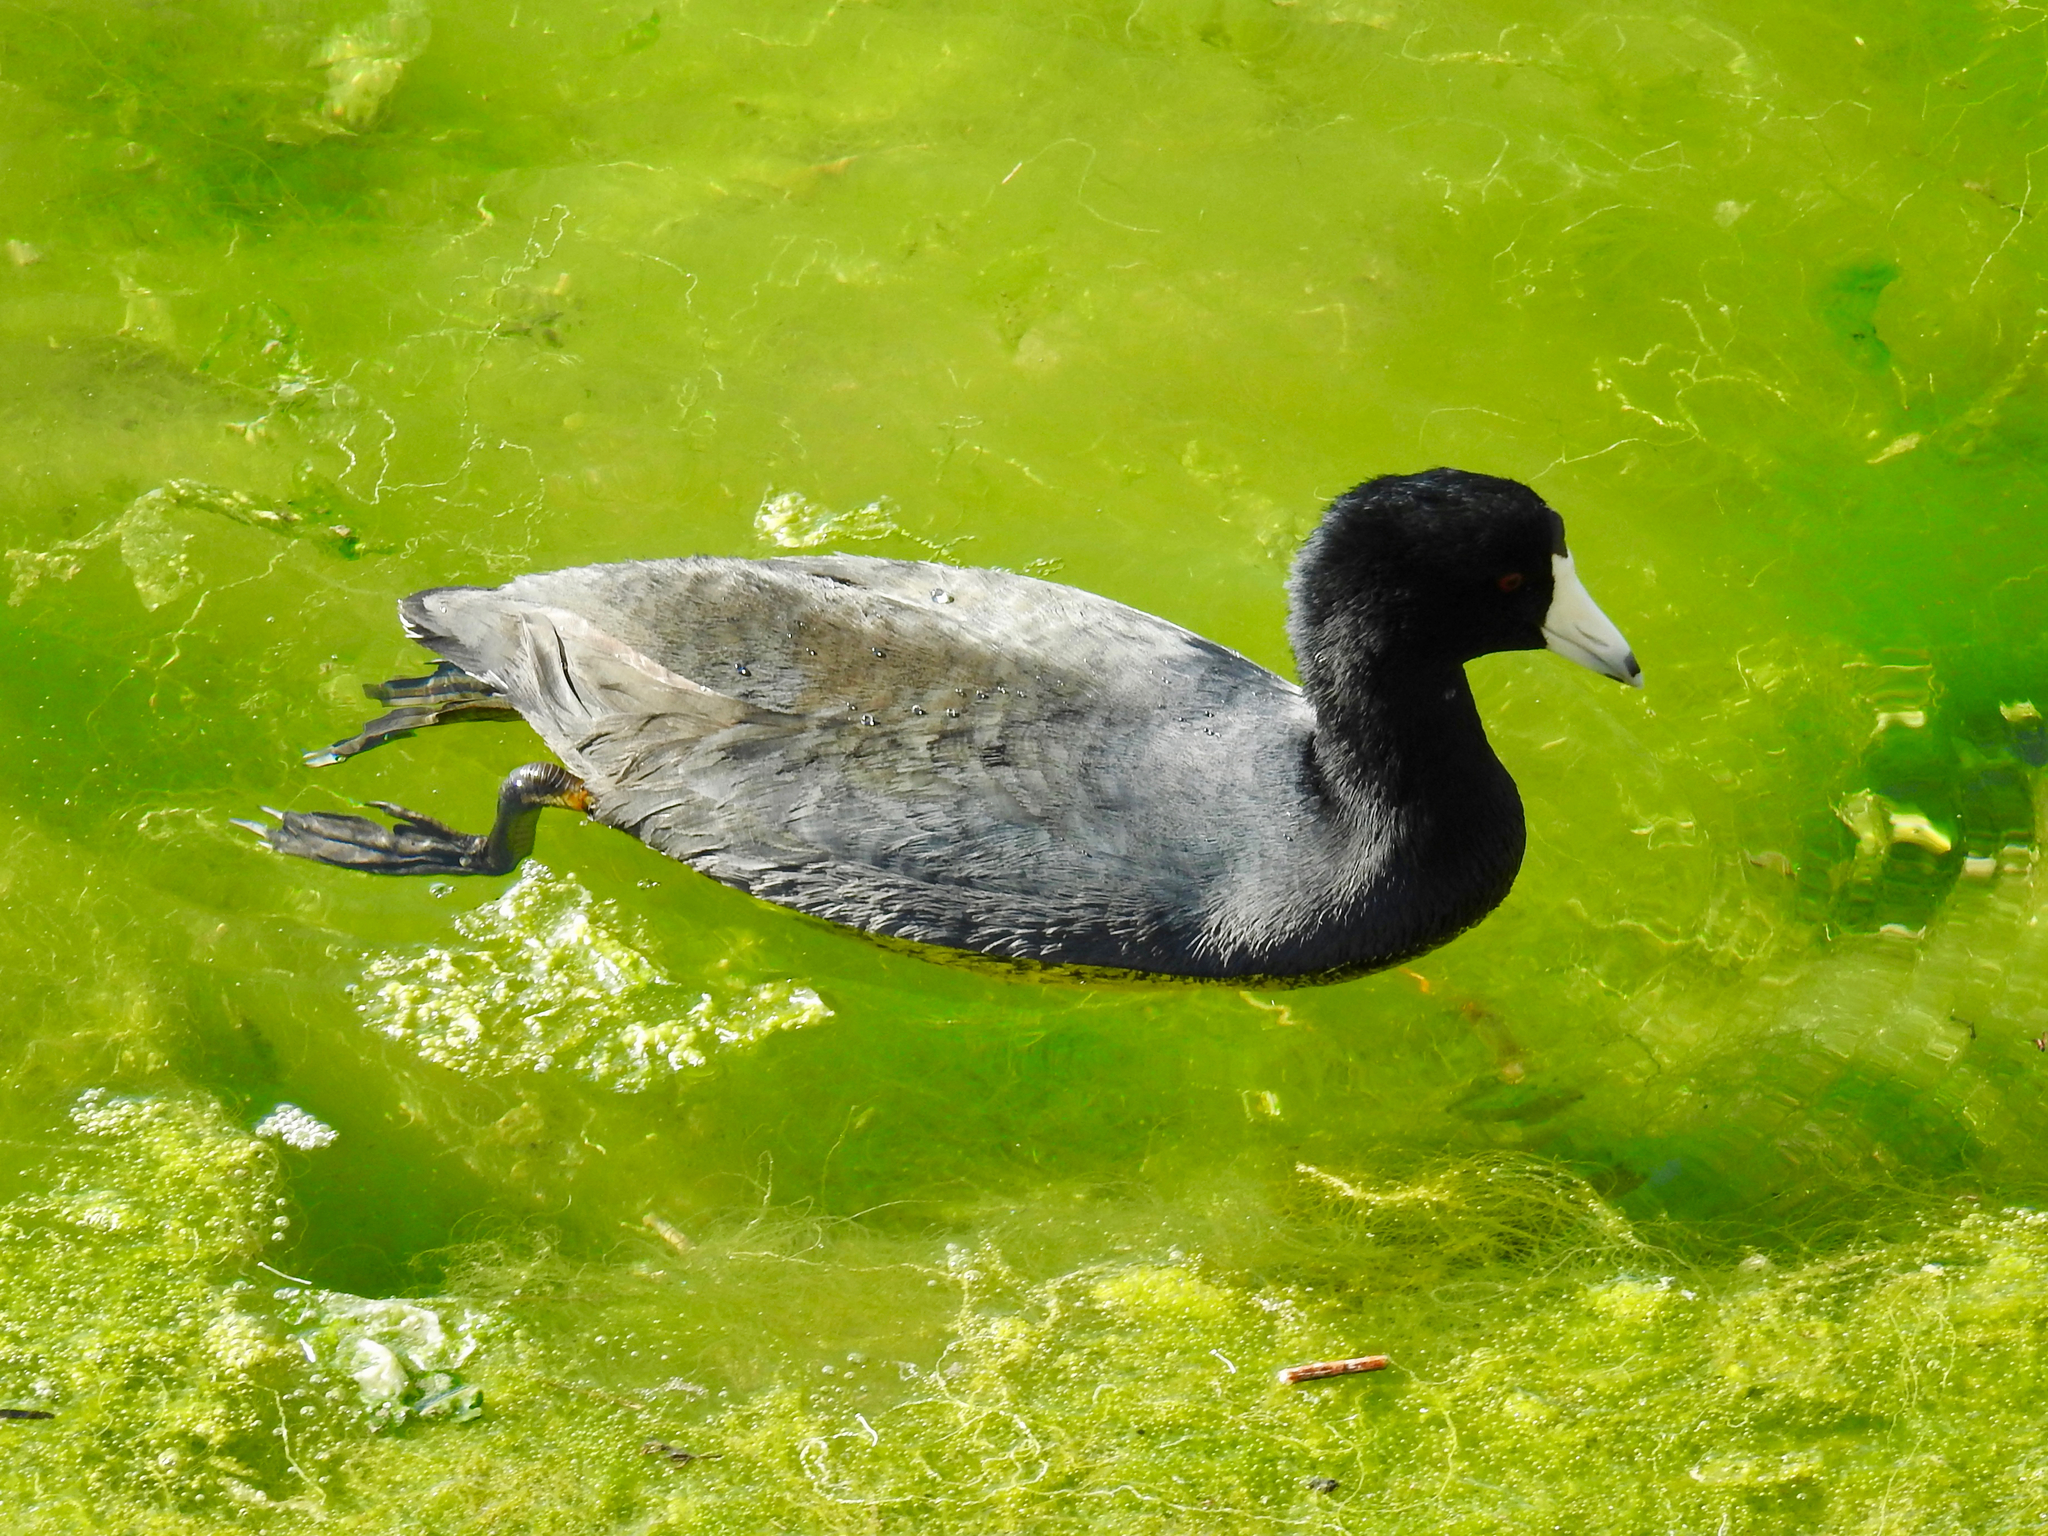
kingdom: Animalia
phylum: Chordata
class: Aves
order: Gruiformes
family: Rallidae
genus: Fulica
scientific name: Fulica americana
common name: American coot
